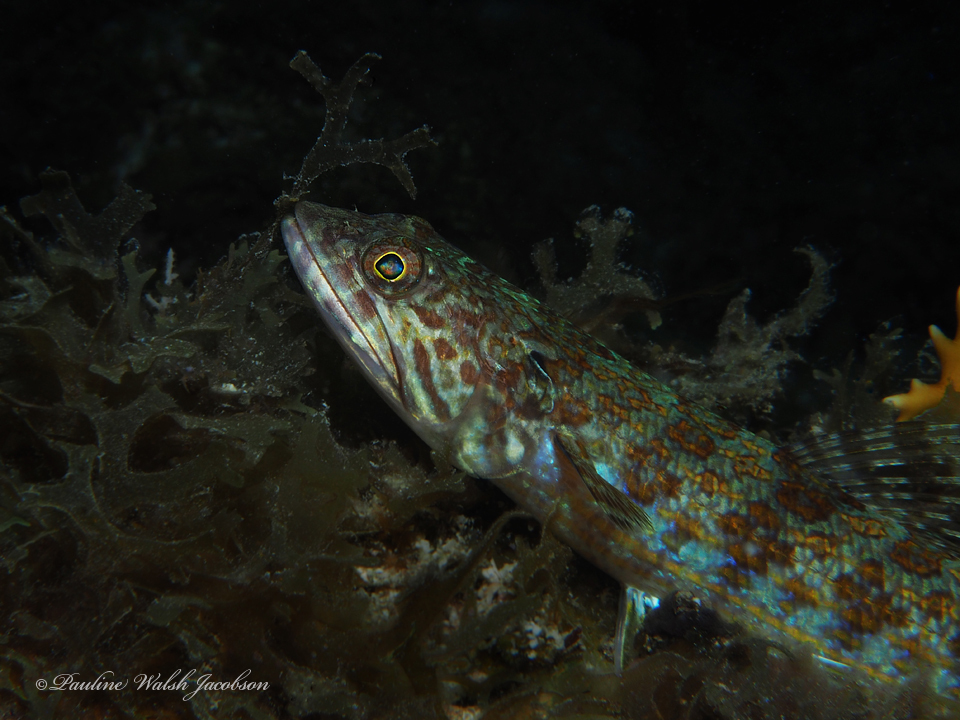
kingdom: Animalia
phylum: Chordata
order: Aulopiformes
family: Synodontidae
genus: Synodus
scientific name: Synodus intermedius
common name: Sand diver
